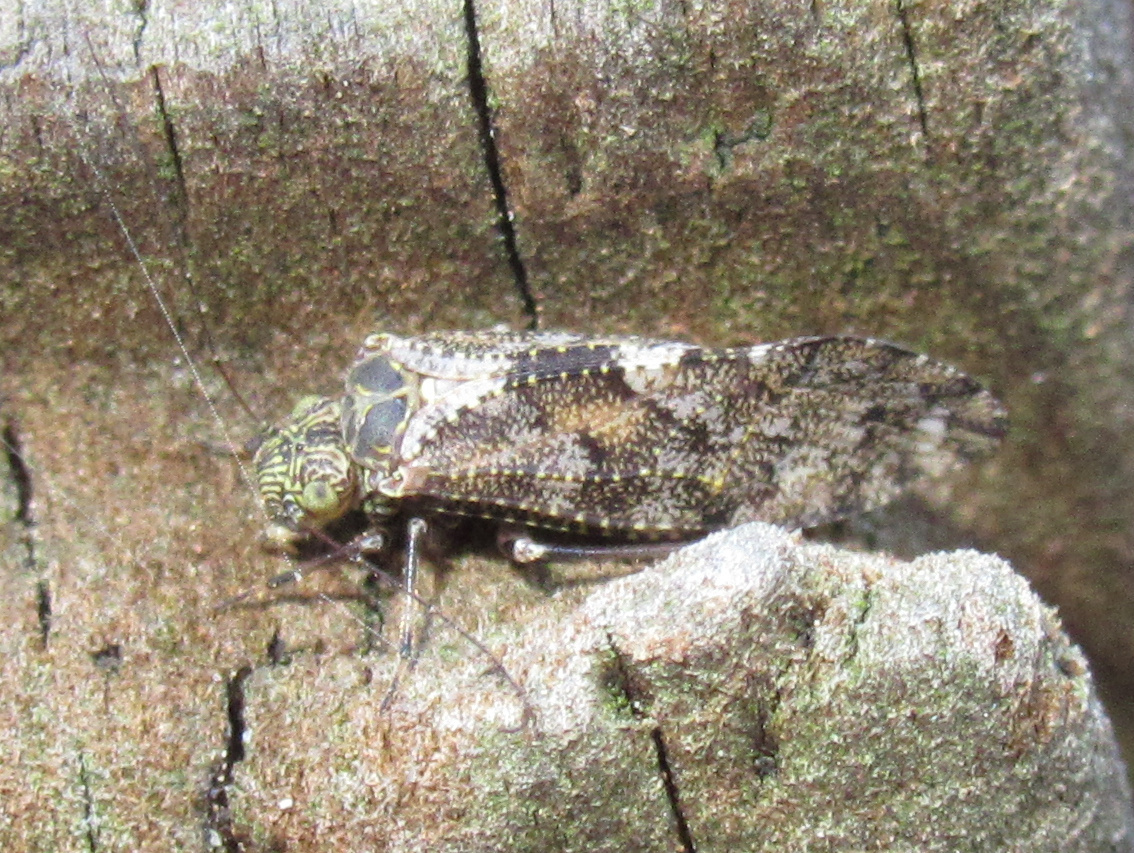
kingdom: Animalia
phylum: Arthropoda
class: Insecta
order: Psocodea
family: Myopsocidae
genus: Nimbopsocus
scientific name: Nimbopsocus australis
